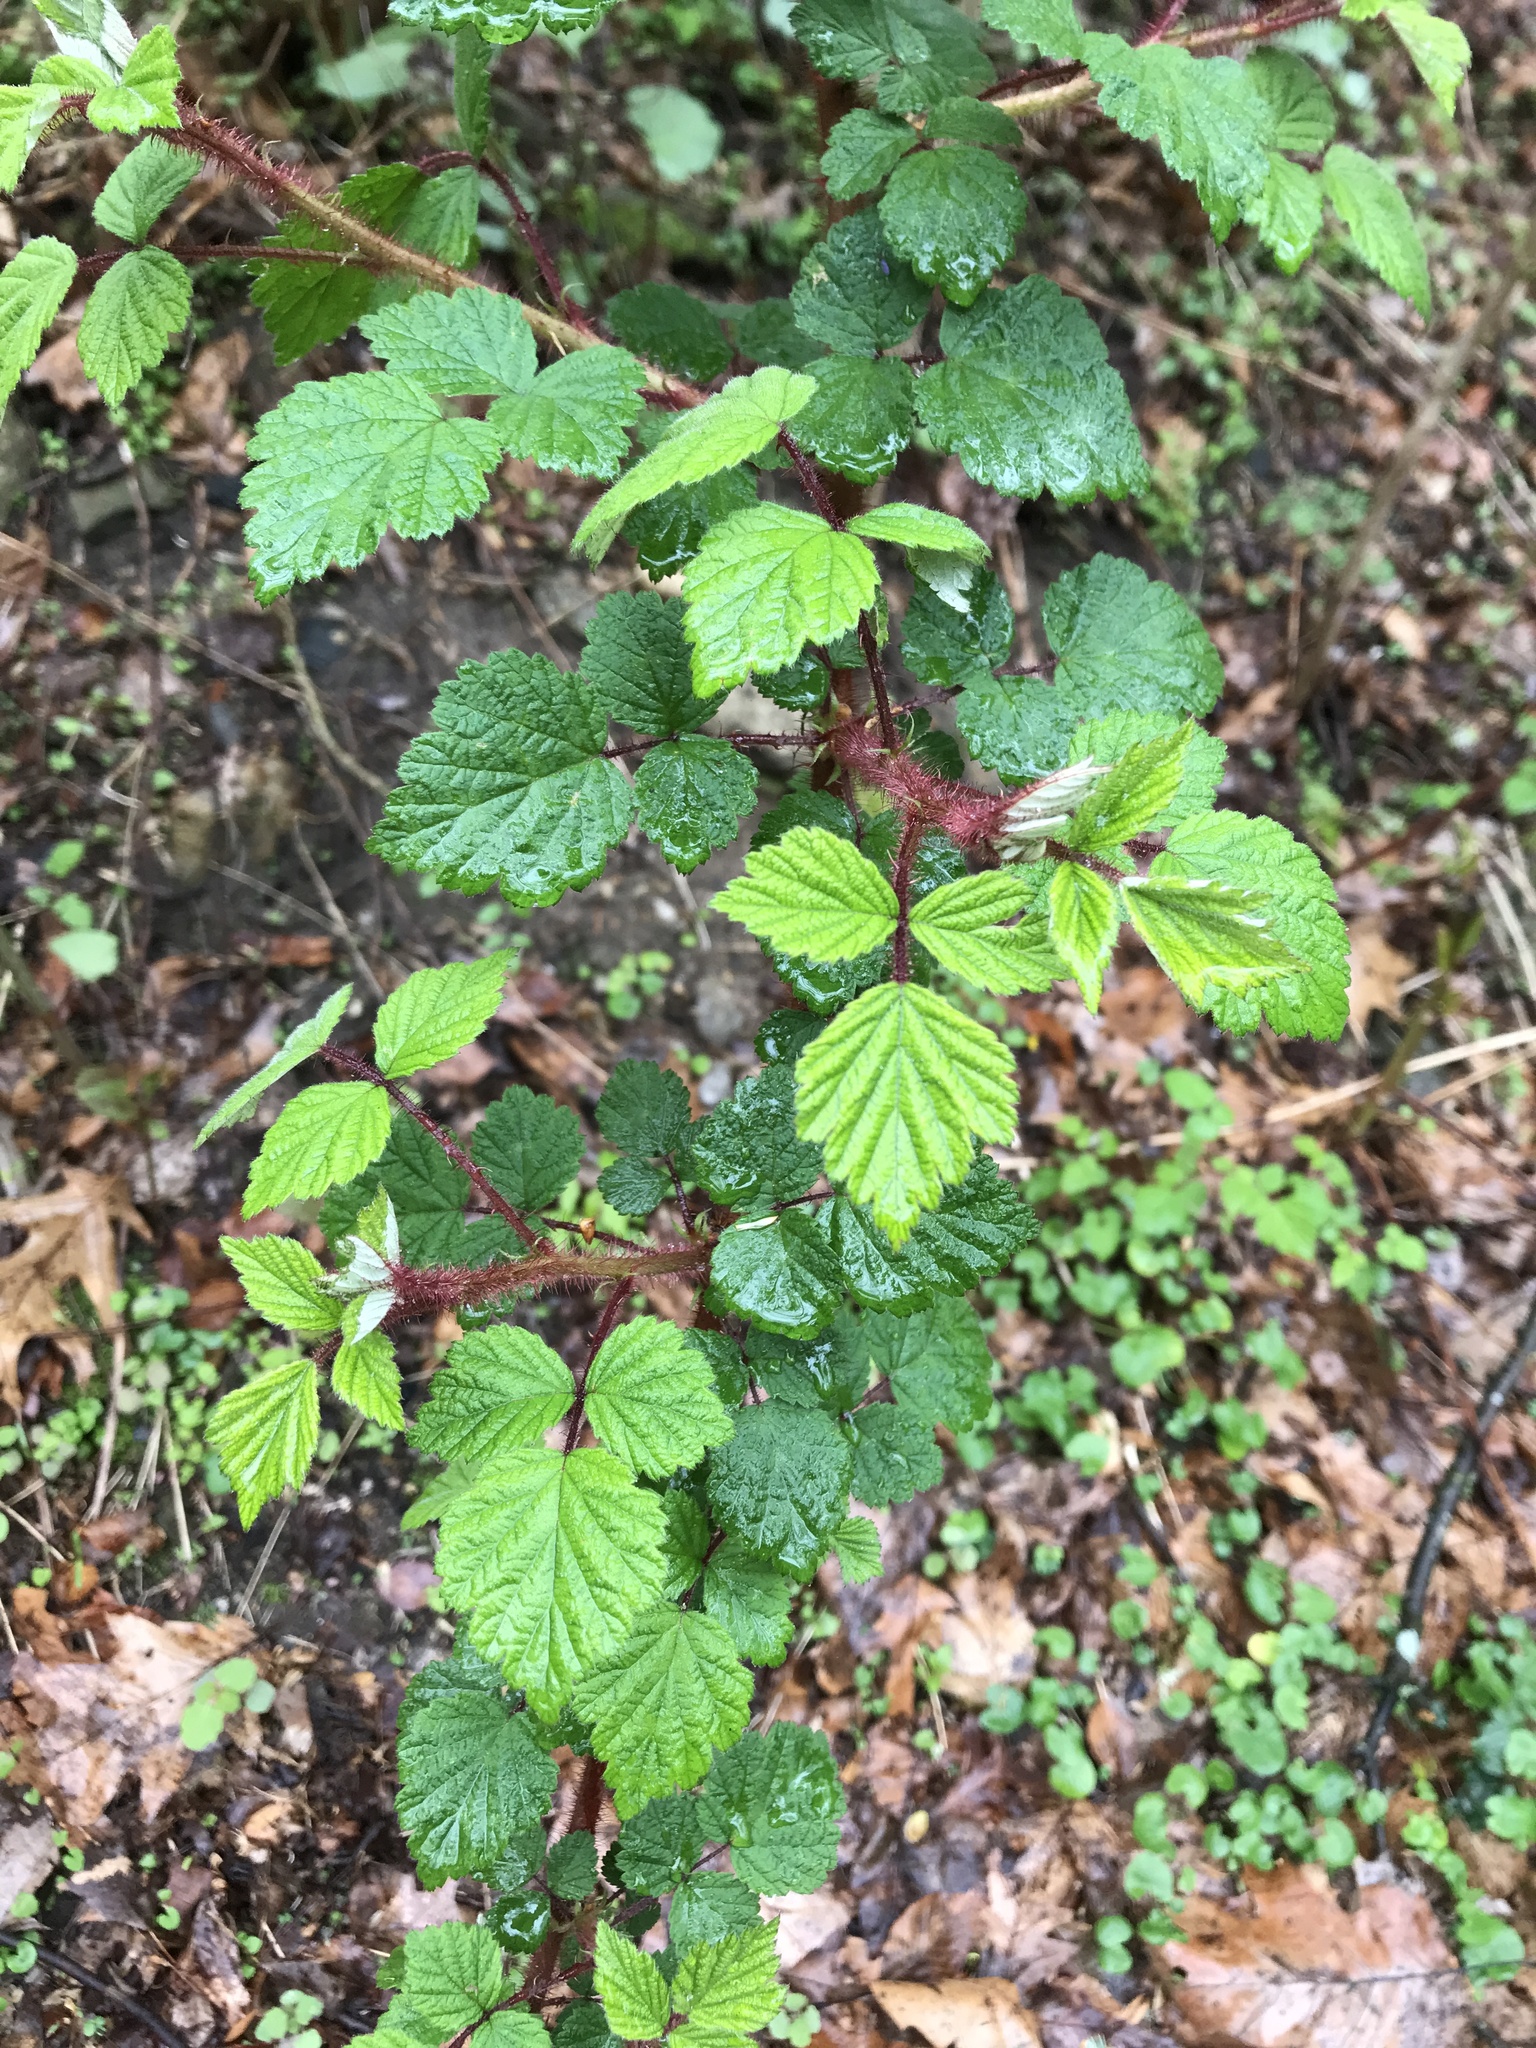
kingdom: Plantae
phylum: Tracheophyta
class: Magnoliopsida
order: Rosales
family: Rosaceae
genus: Rubus
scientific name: Rubus phoenicolasius
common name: Japanese wineberry
